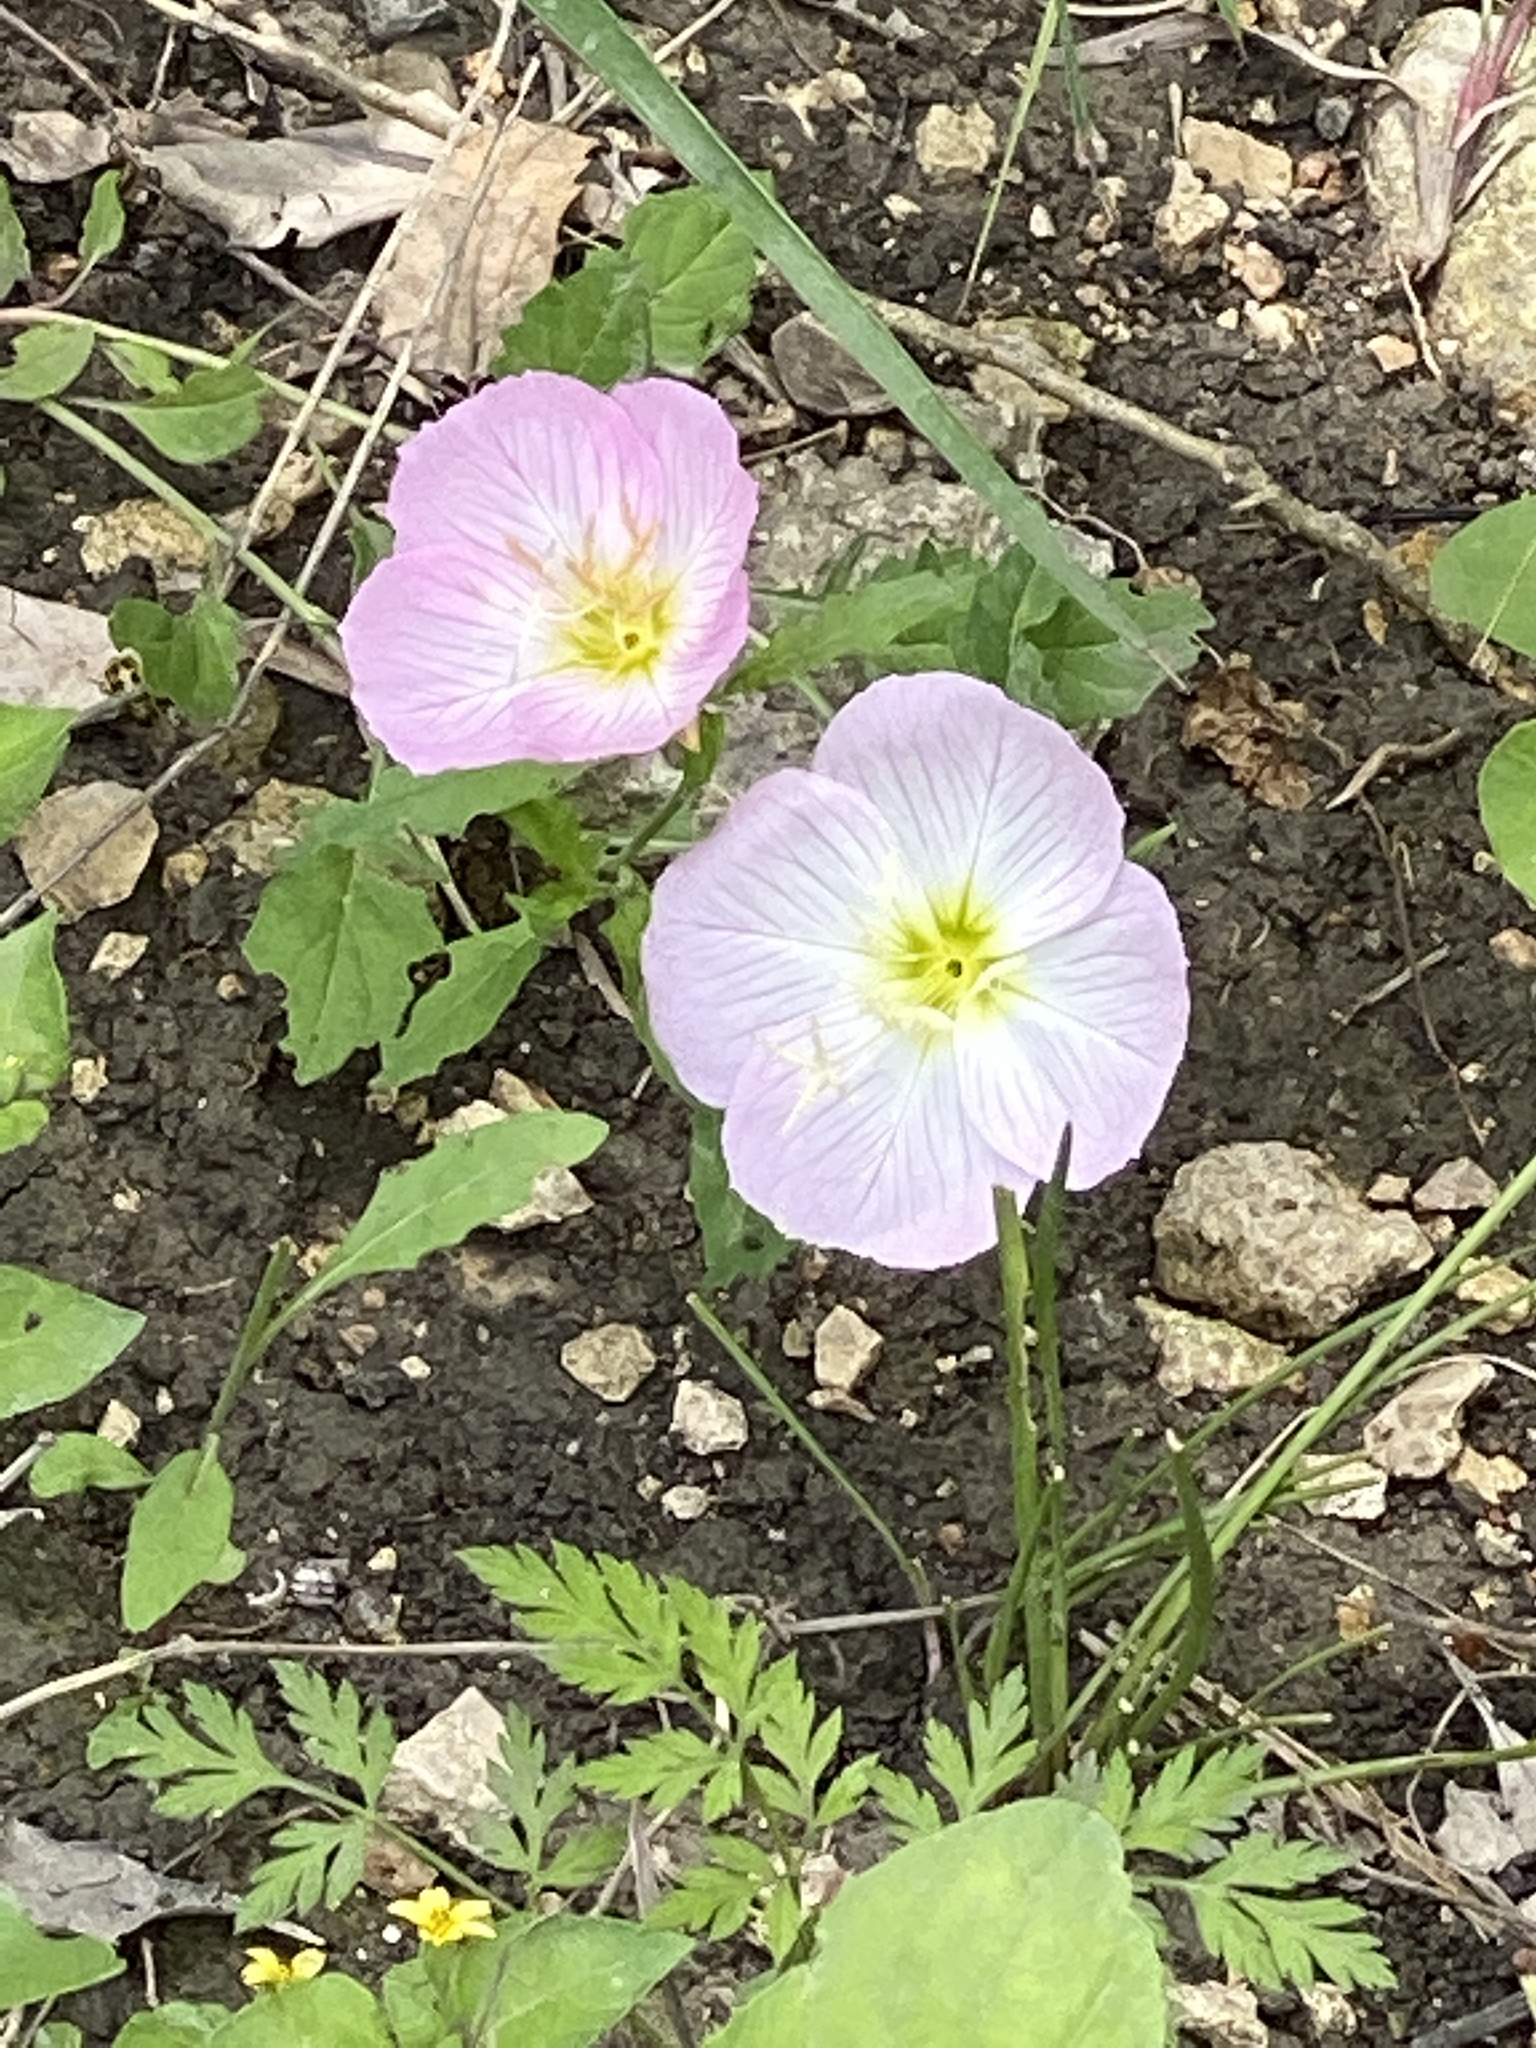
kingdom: Plantae
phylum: Tracheophyta
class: Magnoliopsida
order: Myrtales
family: Onagraceae
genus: Oenothera
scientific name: Oenothera speciosa
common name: White evening-primrose
